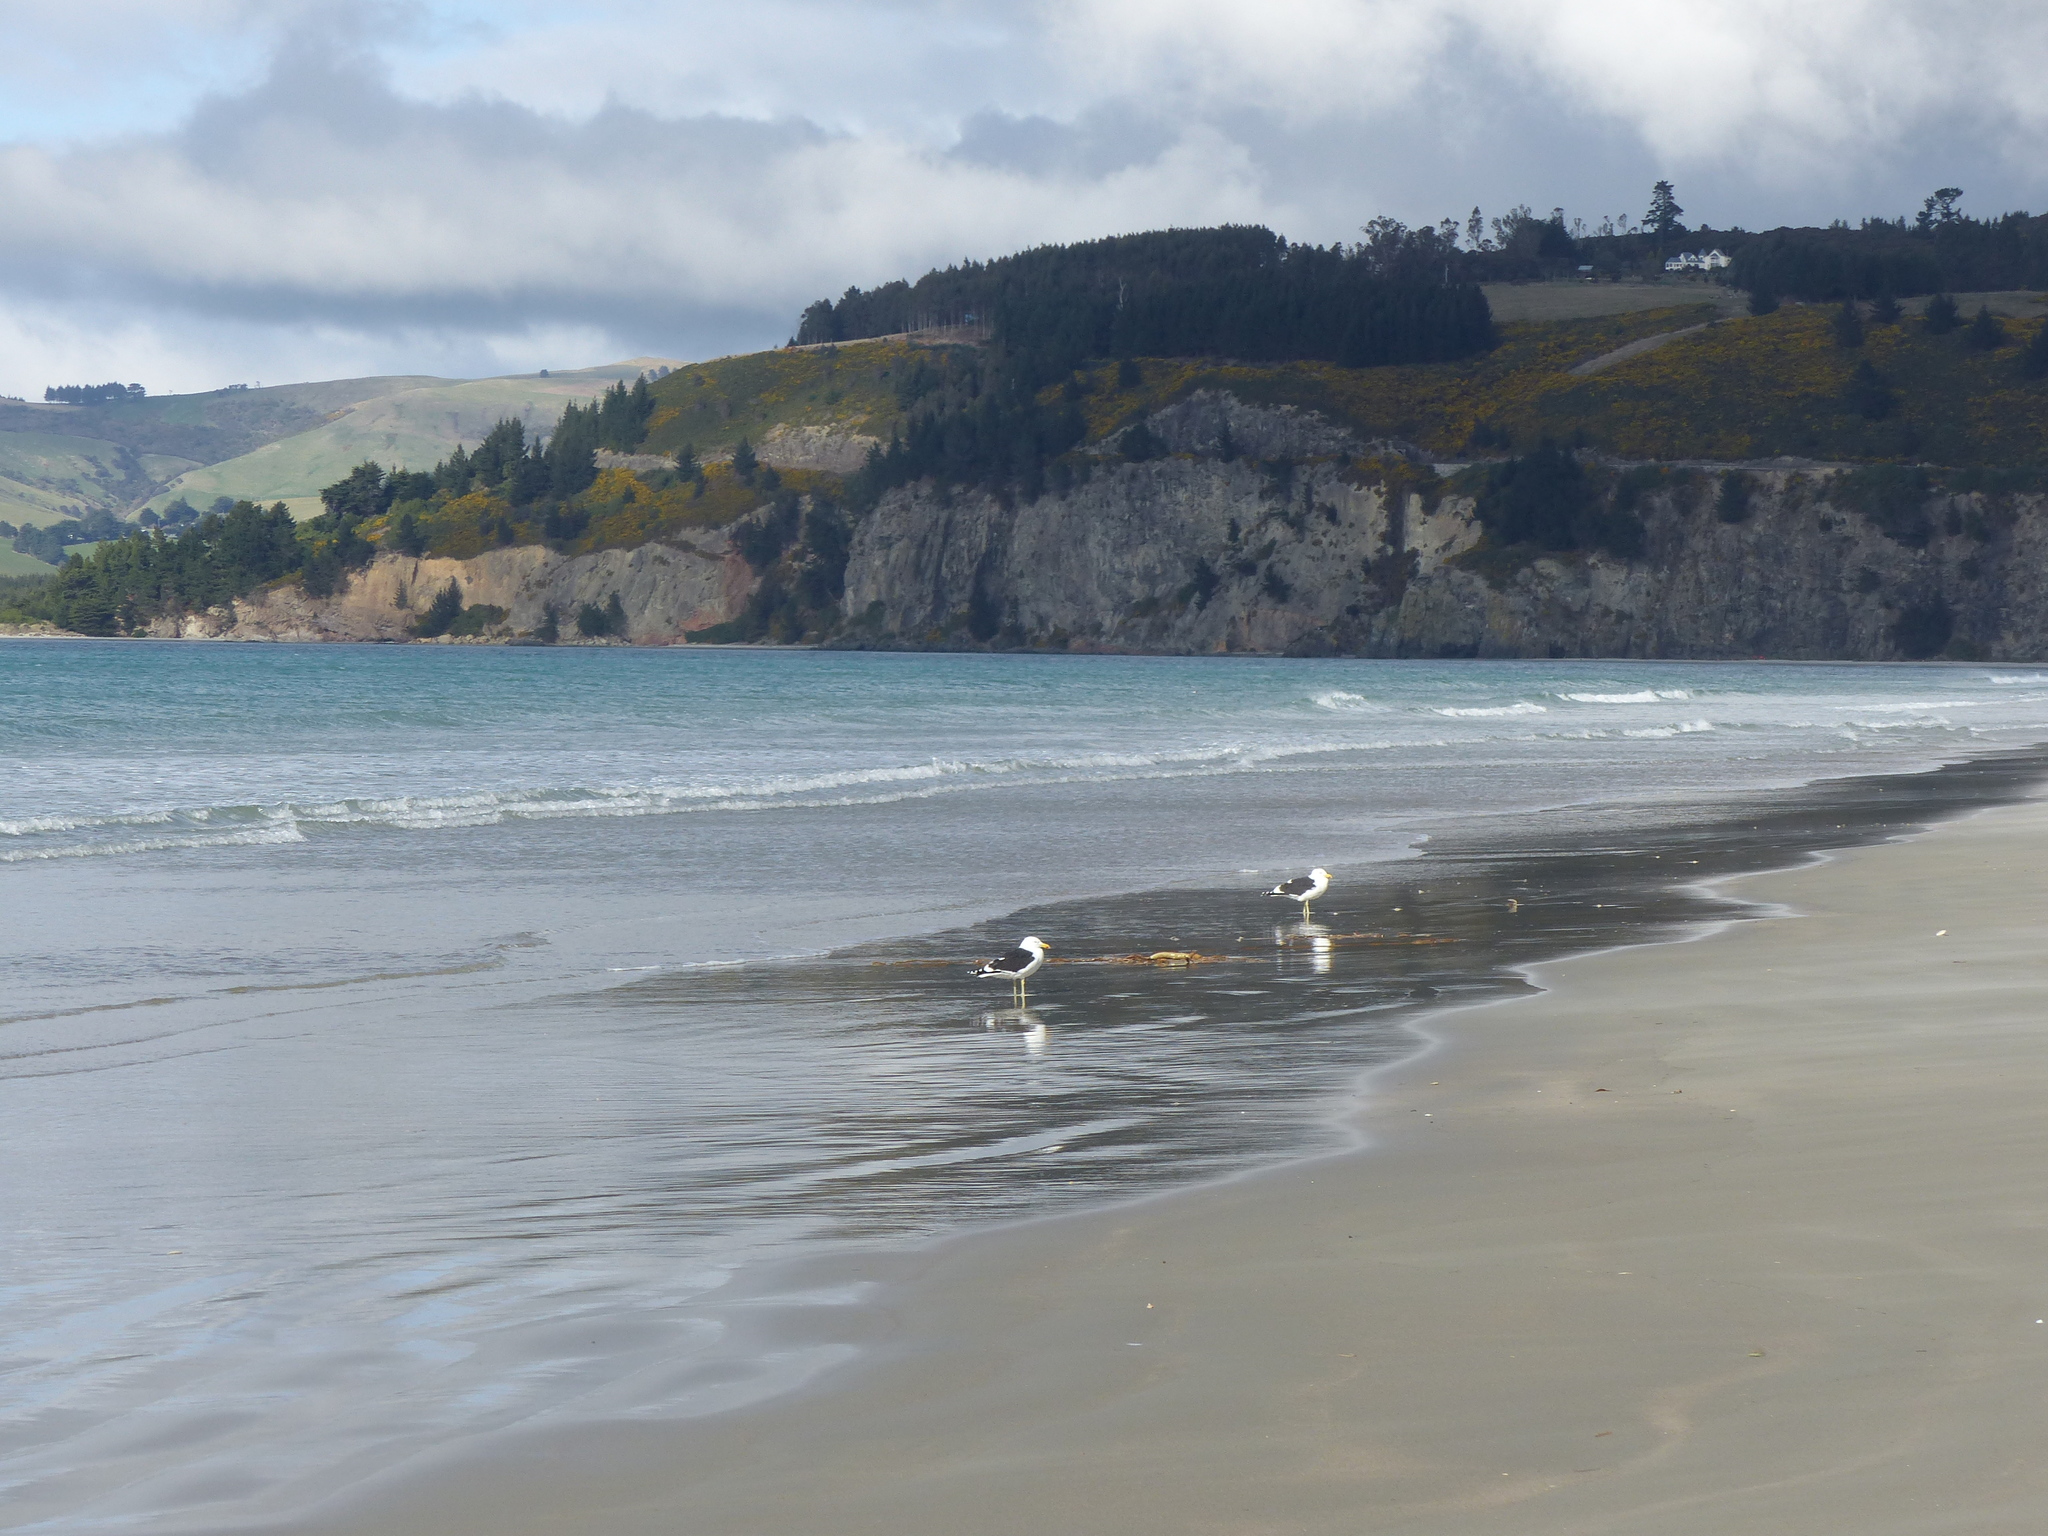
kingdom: Animalia
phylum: Chordata
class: Aves
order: Charadriiformes
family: Laridae
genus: Larus
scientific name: Larus dominicanus
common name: Kelp gull
